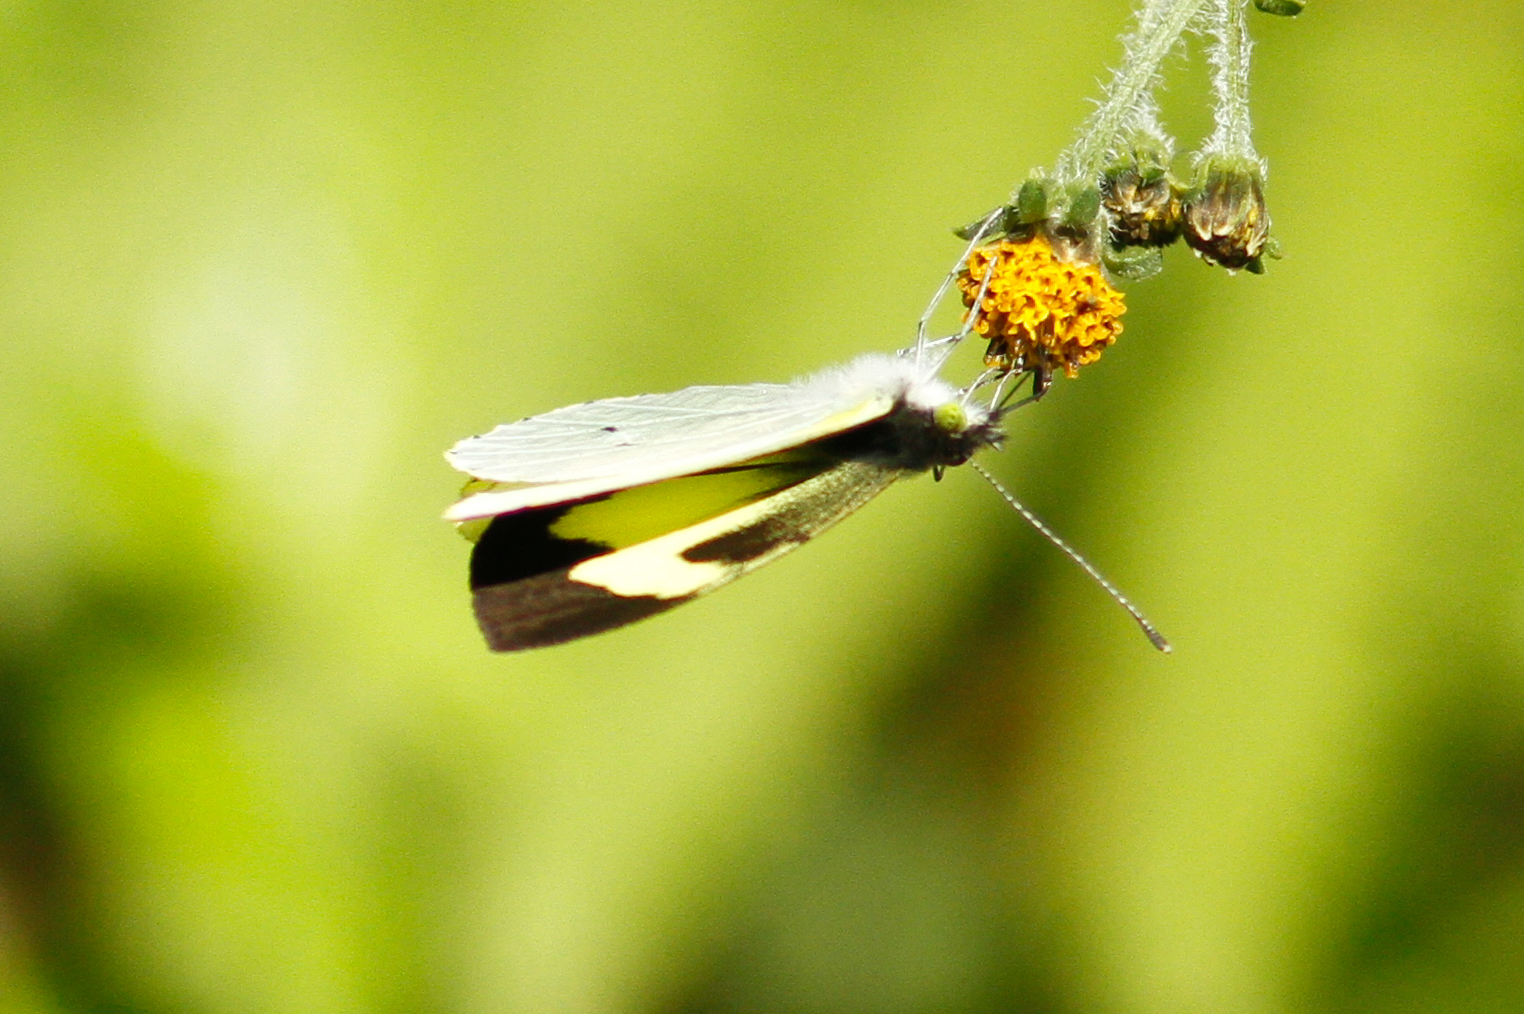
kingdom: Animalia
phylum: Arthropoda
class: Insecta
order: Lepidoptera
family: Pieridae
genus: Leptophobia
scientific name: Leptophobia eleone
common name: Silky wanderer
